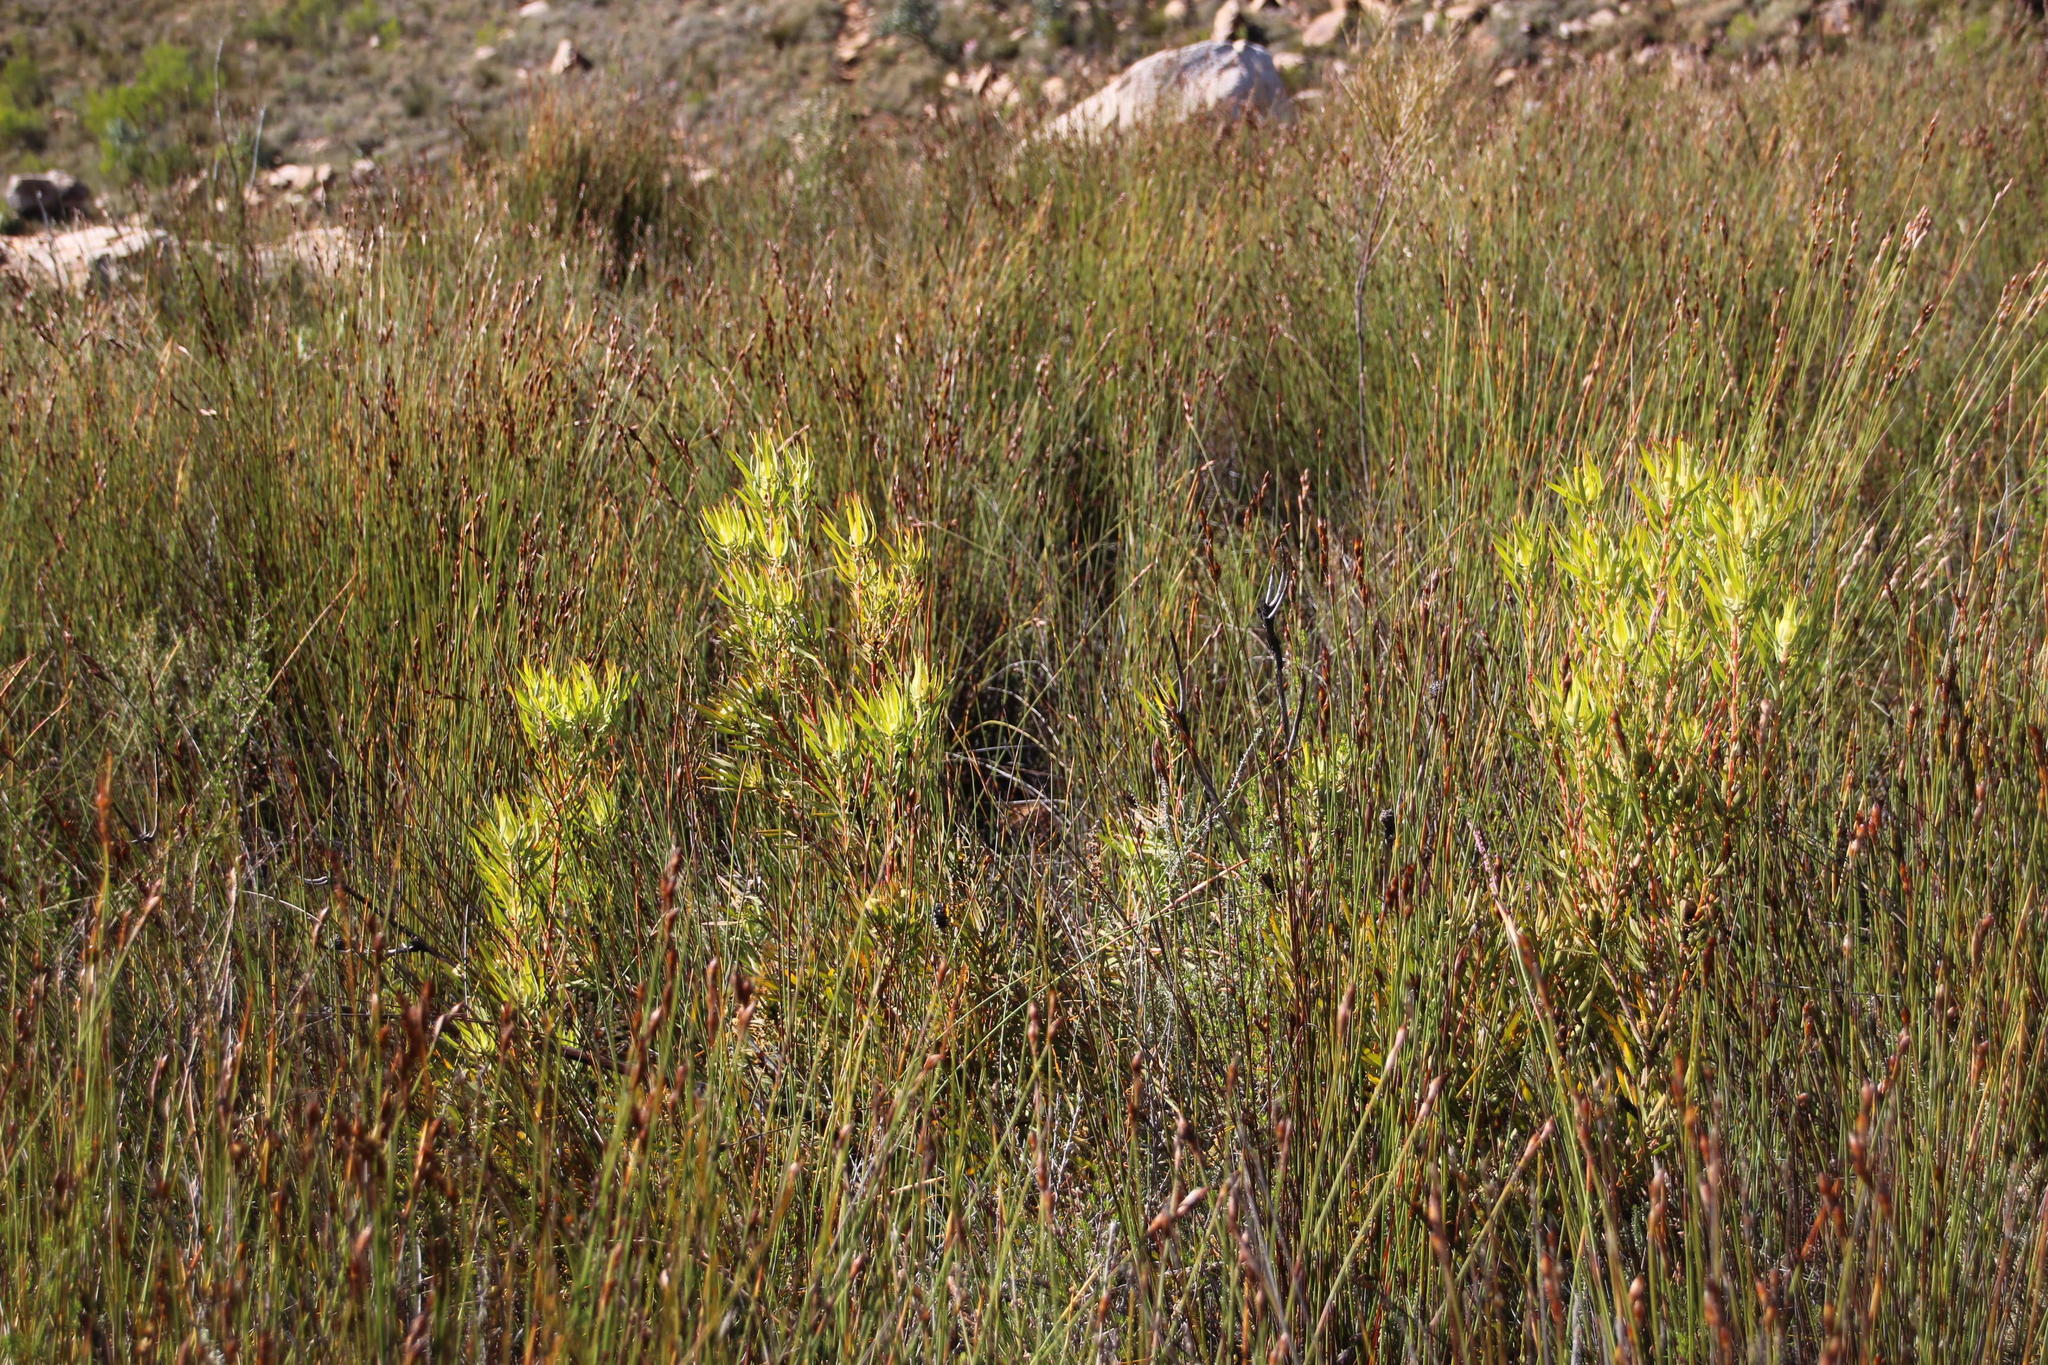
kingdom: Plantae
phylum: Tracheophyta
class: Magnoliopsida
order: Proteales
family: Proteaceae
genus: Leucadendron
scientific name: Leucadendron salignum
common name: Common sunshine conebush
